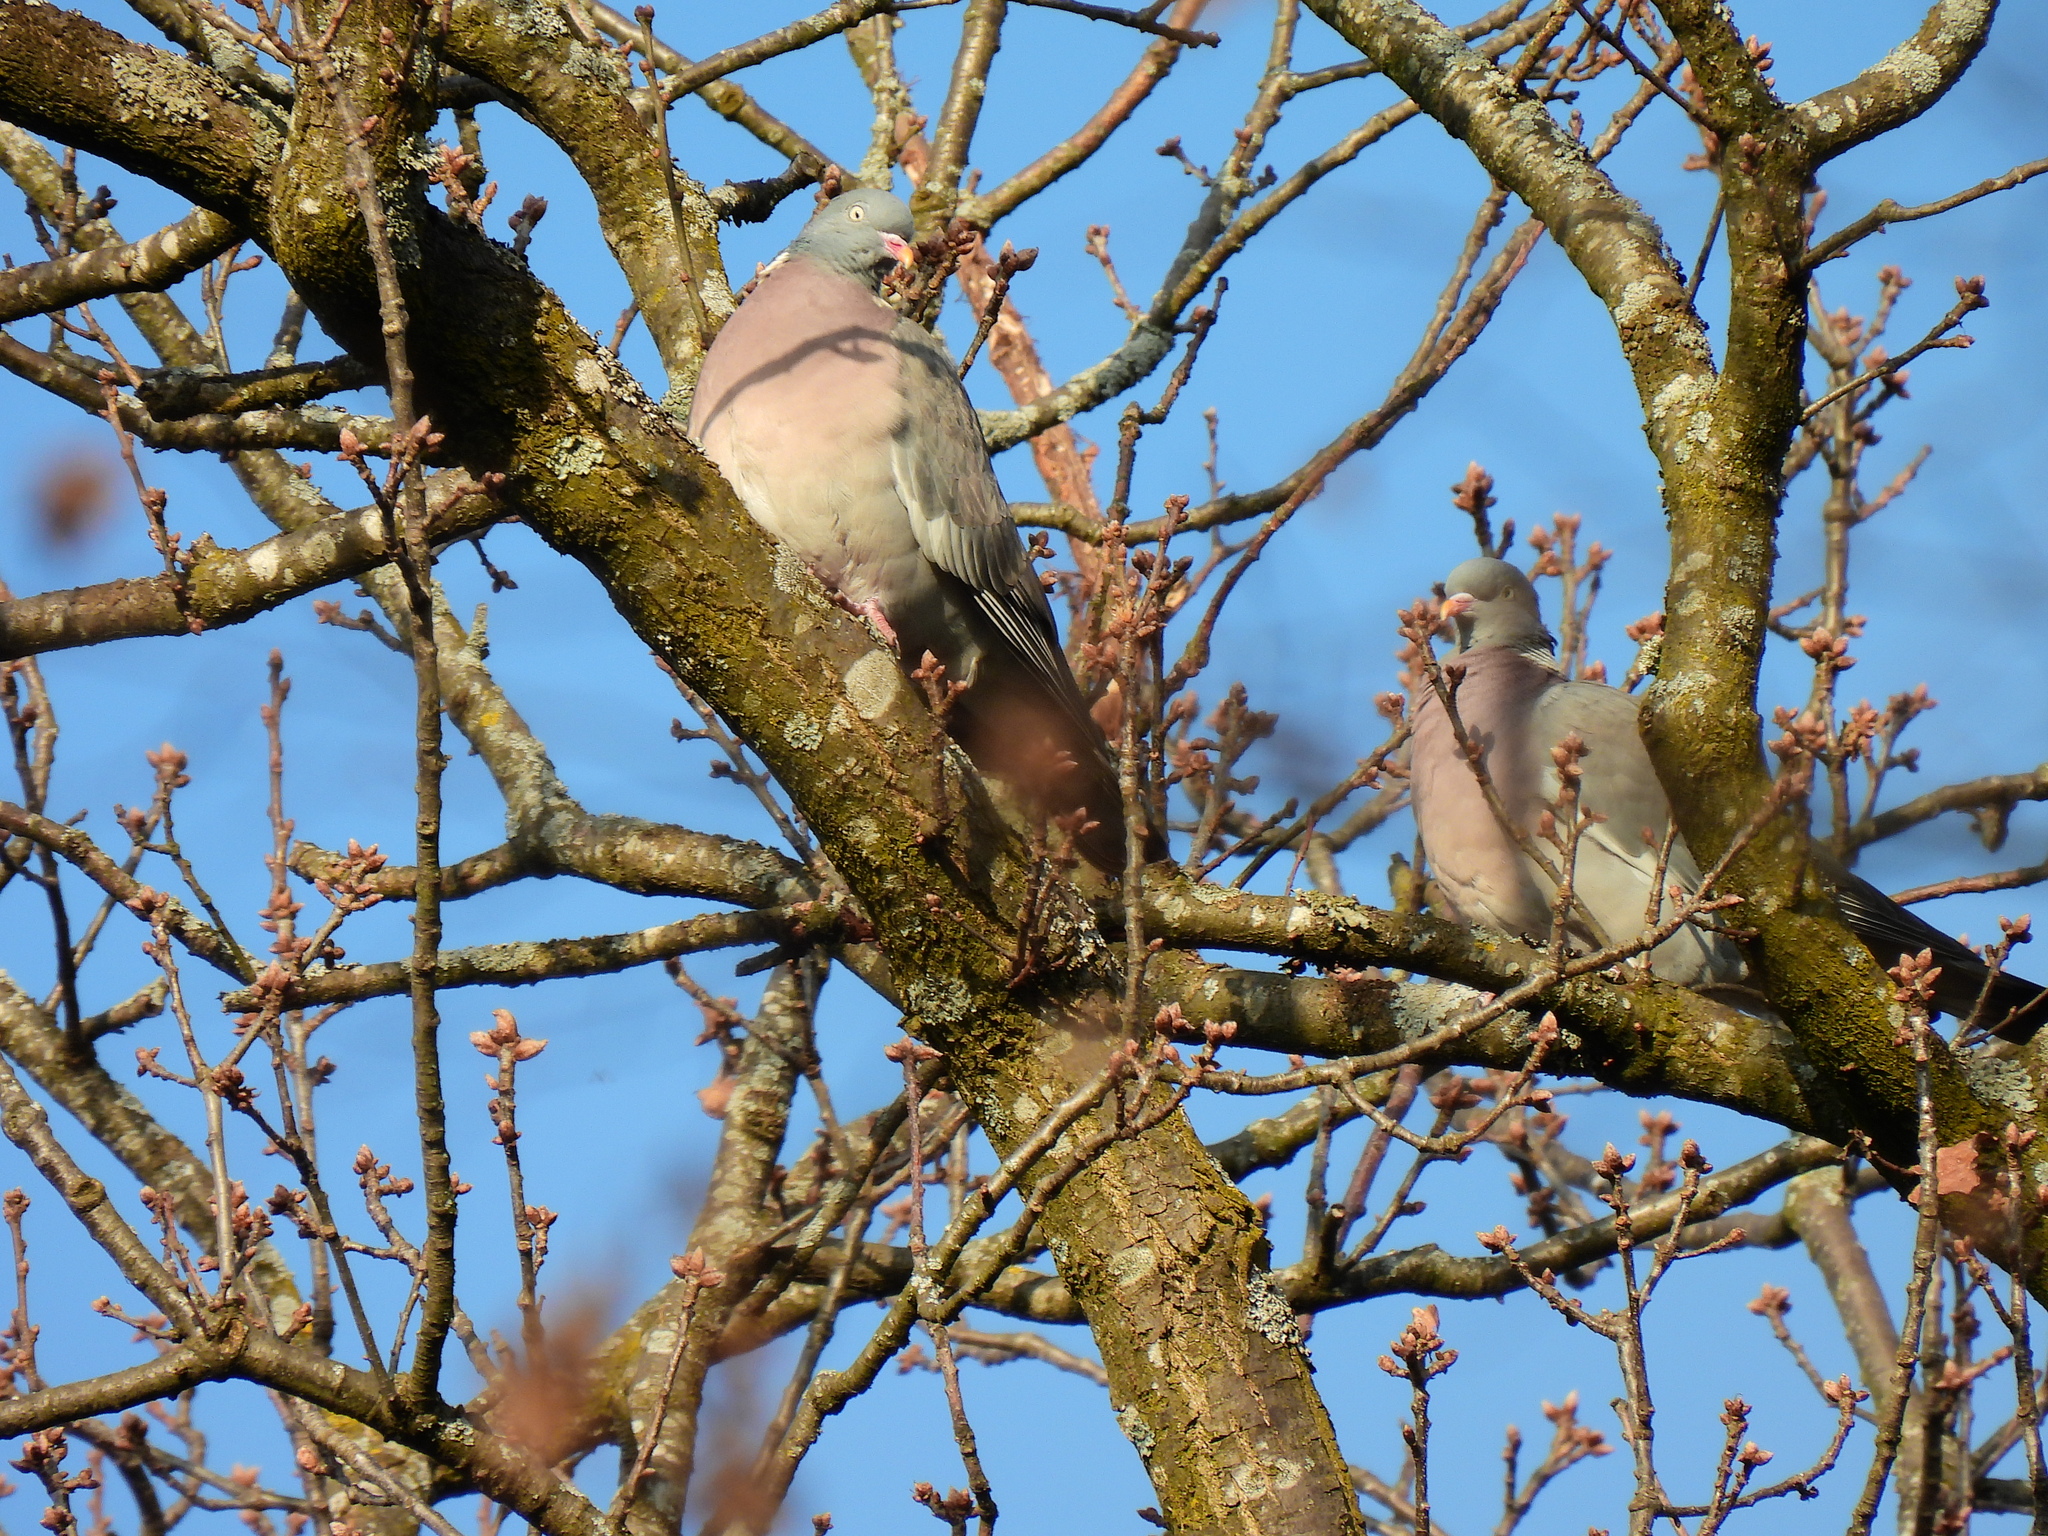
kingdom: Animalia
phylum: Chordata
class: Aves
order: Columbiformes
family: Columbidae
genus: Columba
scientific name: Columba palumbus
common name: Common wood pigeon
